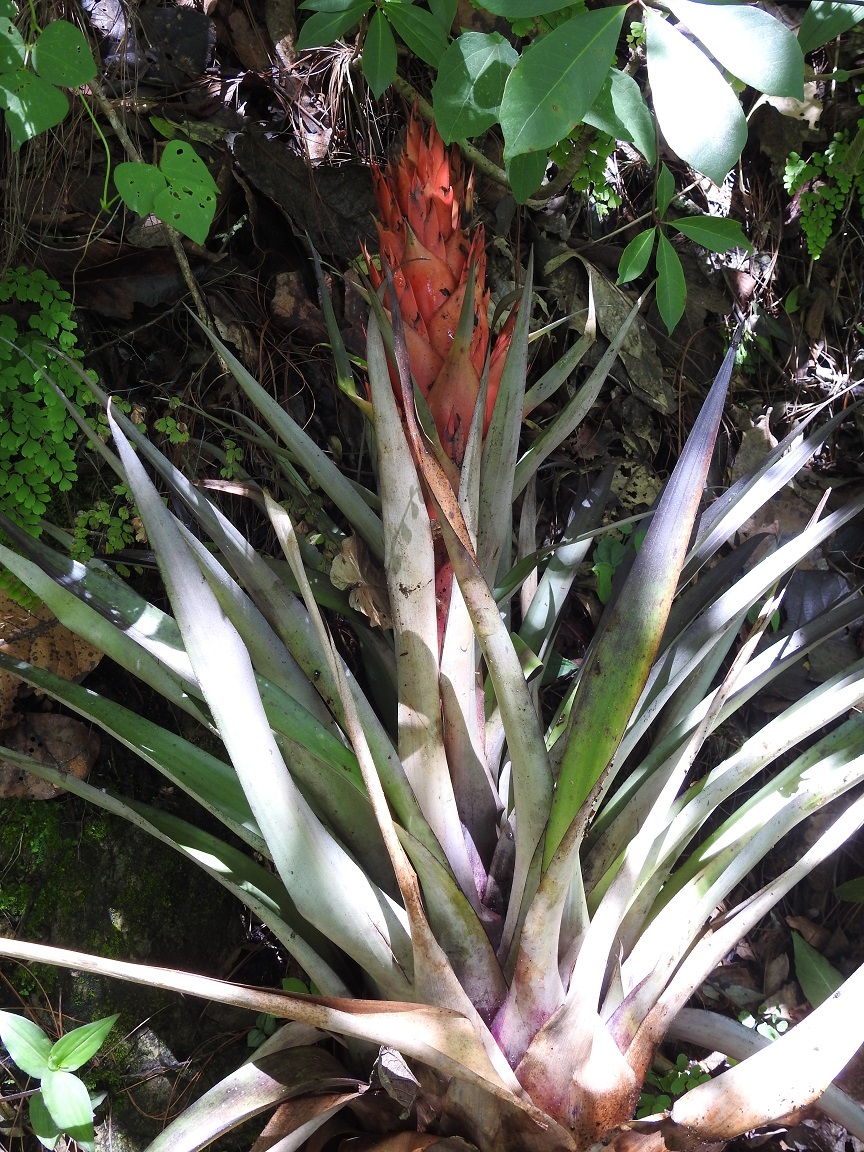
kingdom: Plantae
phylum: Tracheophyta
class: Liliopsida
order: Poales
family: Bromeliaceae
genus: Tillandsia
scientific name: Tillandsia ponderosa
